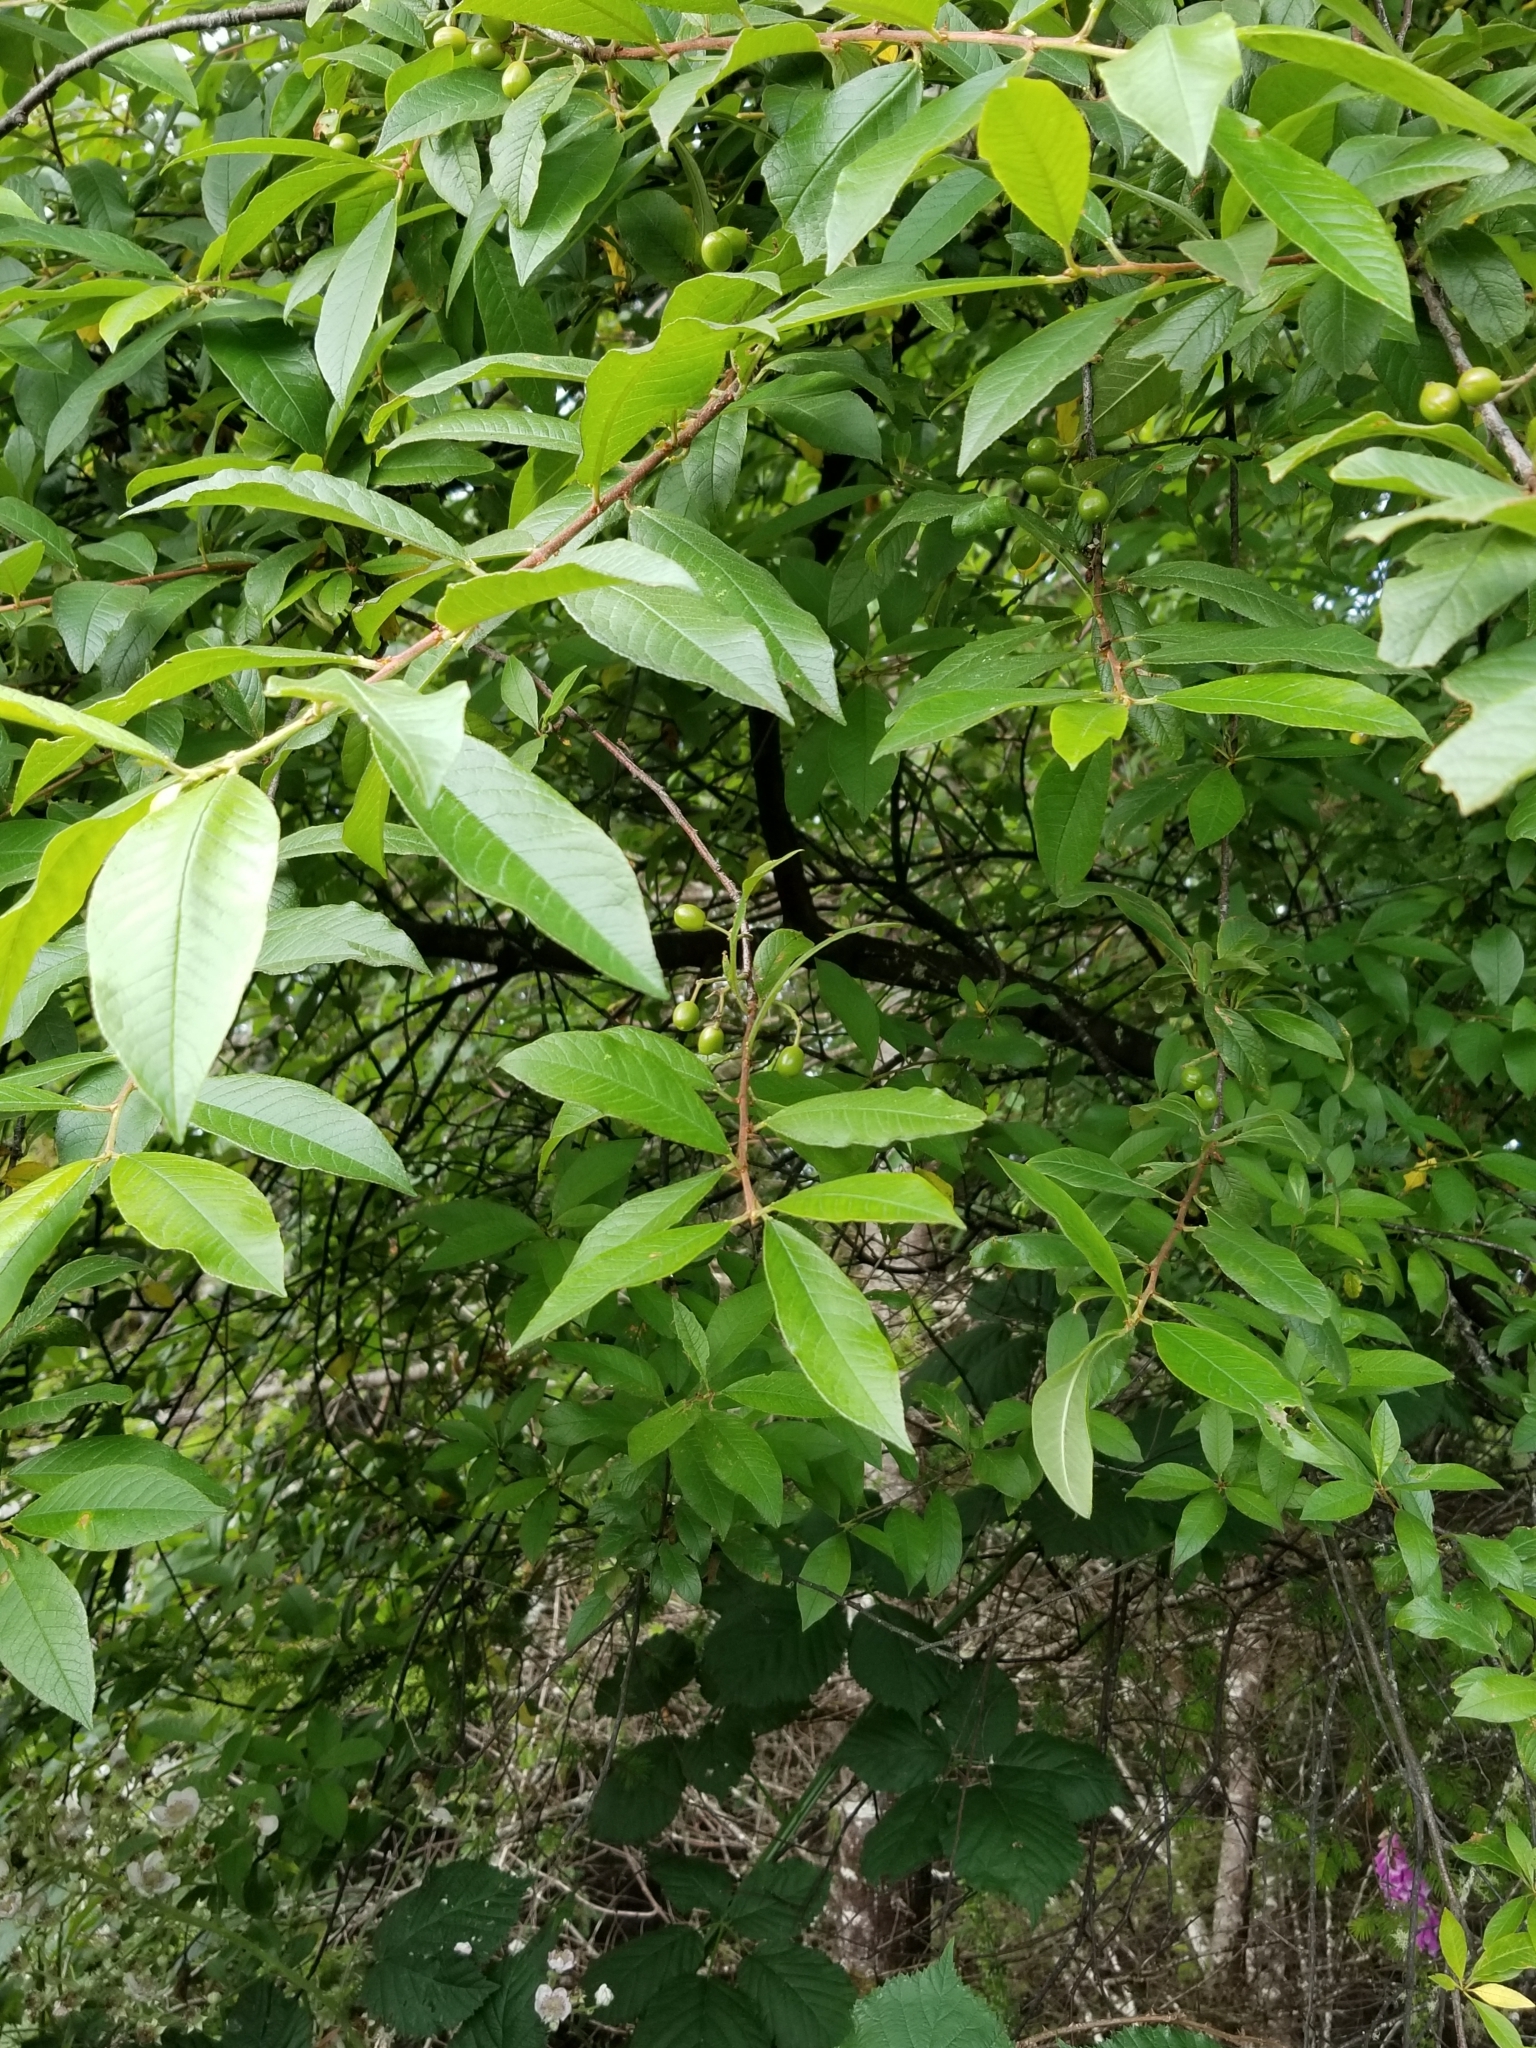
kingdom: Plantae
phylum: Tracheophyta
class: Magnoliopsida
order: Rosales
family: Rosaceae
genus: Prunus
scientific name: Prunus emarginata
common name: Bitter cherry
